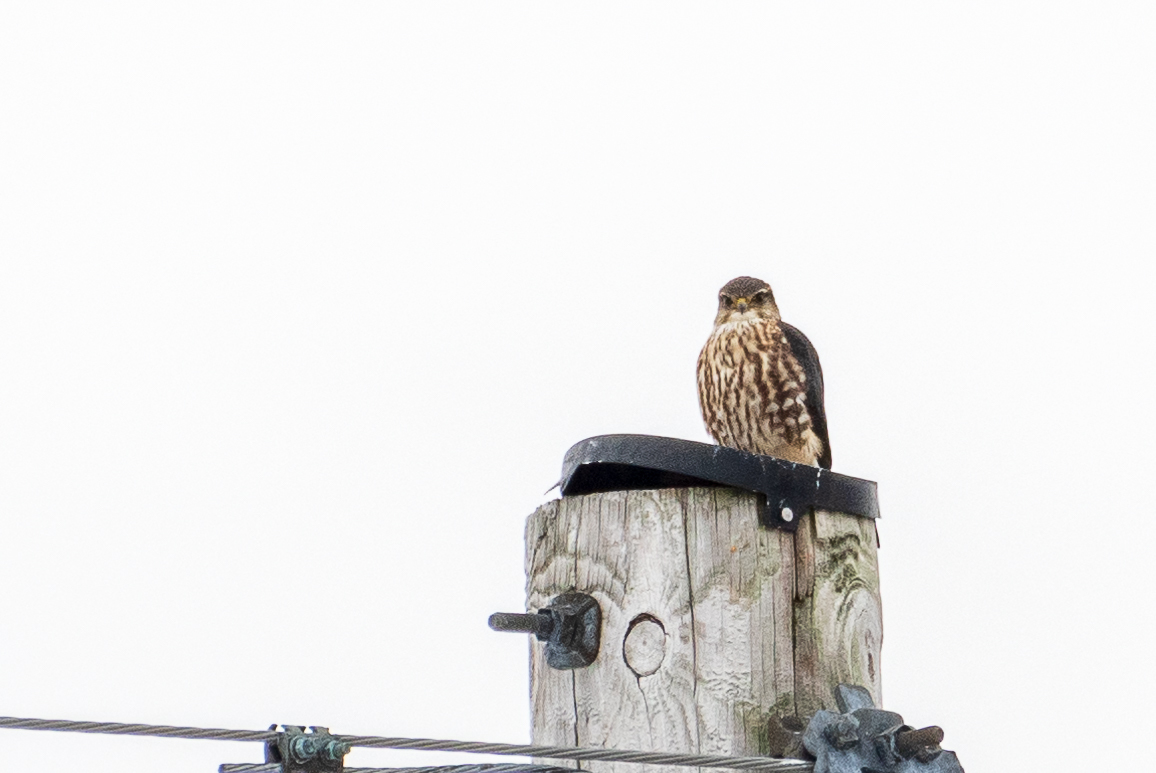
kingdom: Animalia
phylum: Chordata
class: Aves
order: Falconiformes
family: Falconidae
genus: Falco
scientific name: Falco columbarius
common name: Merlin
